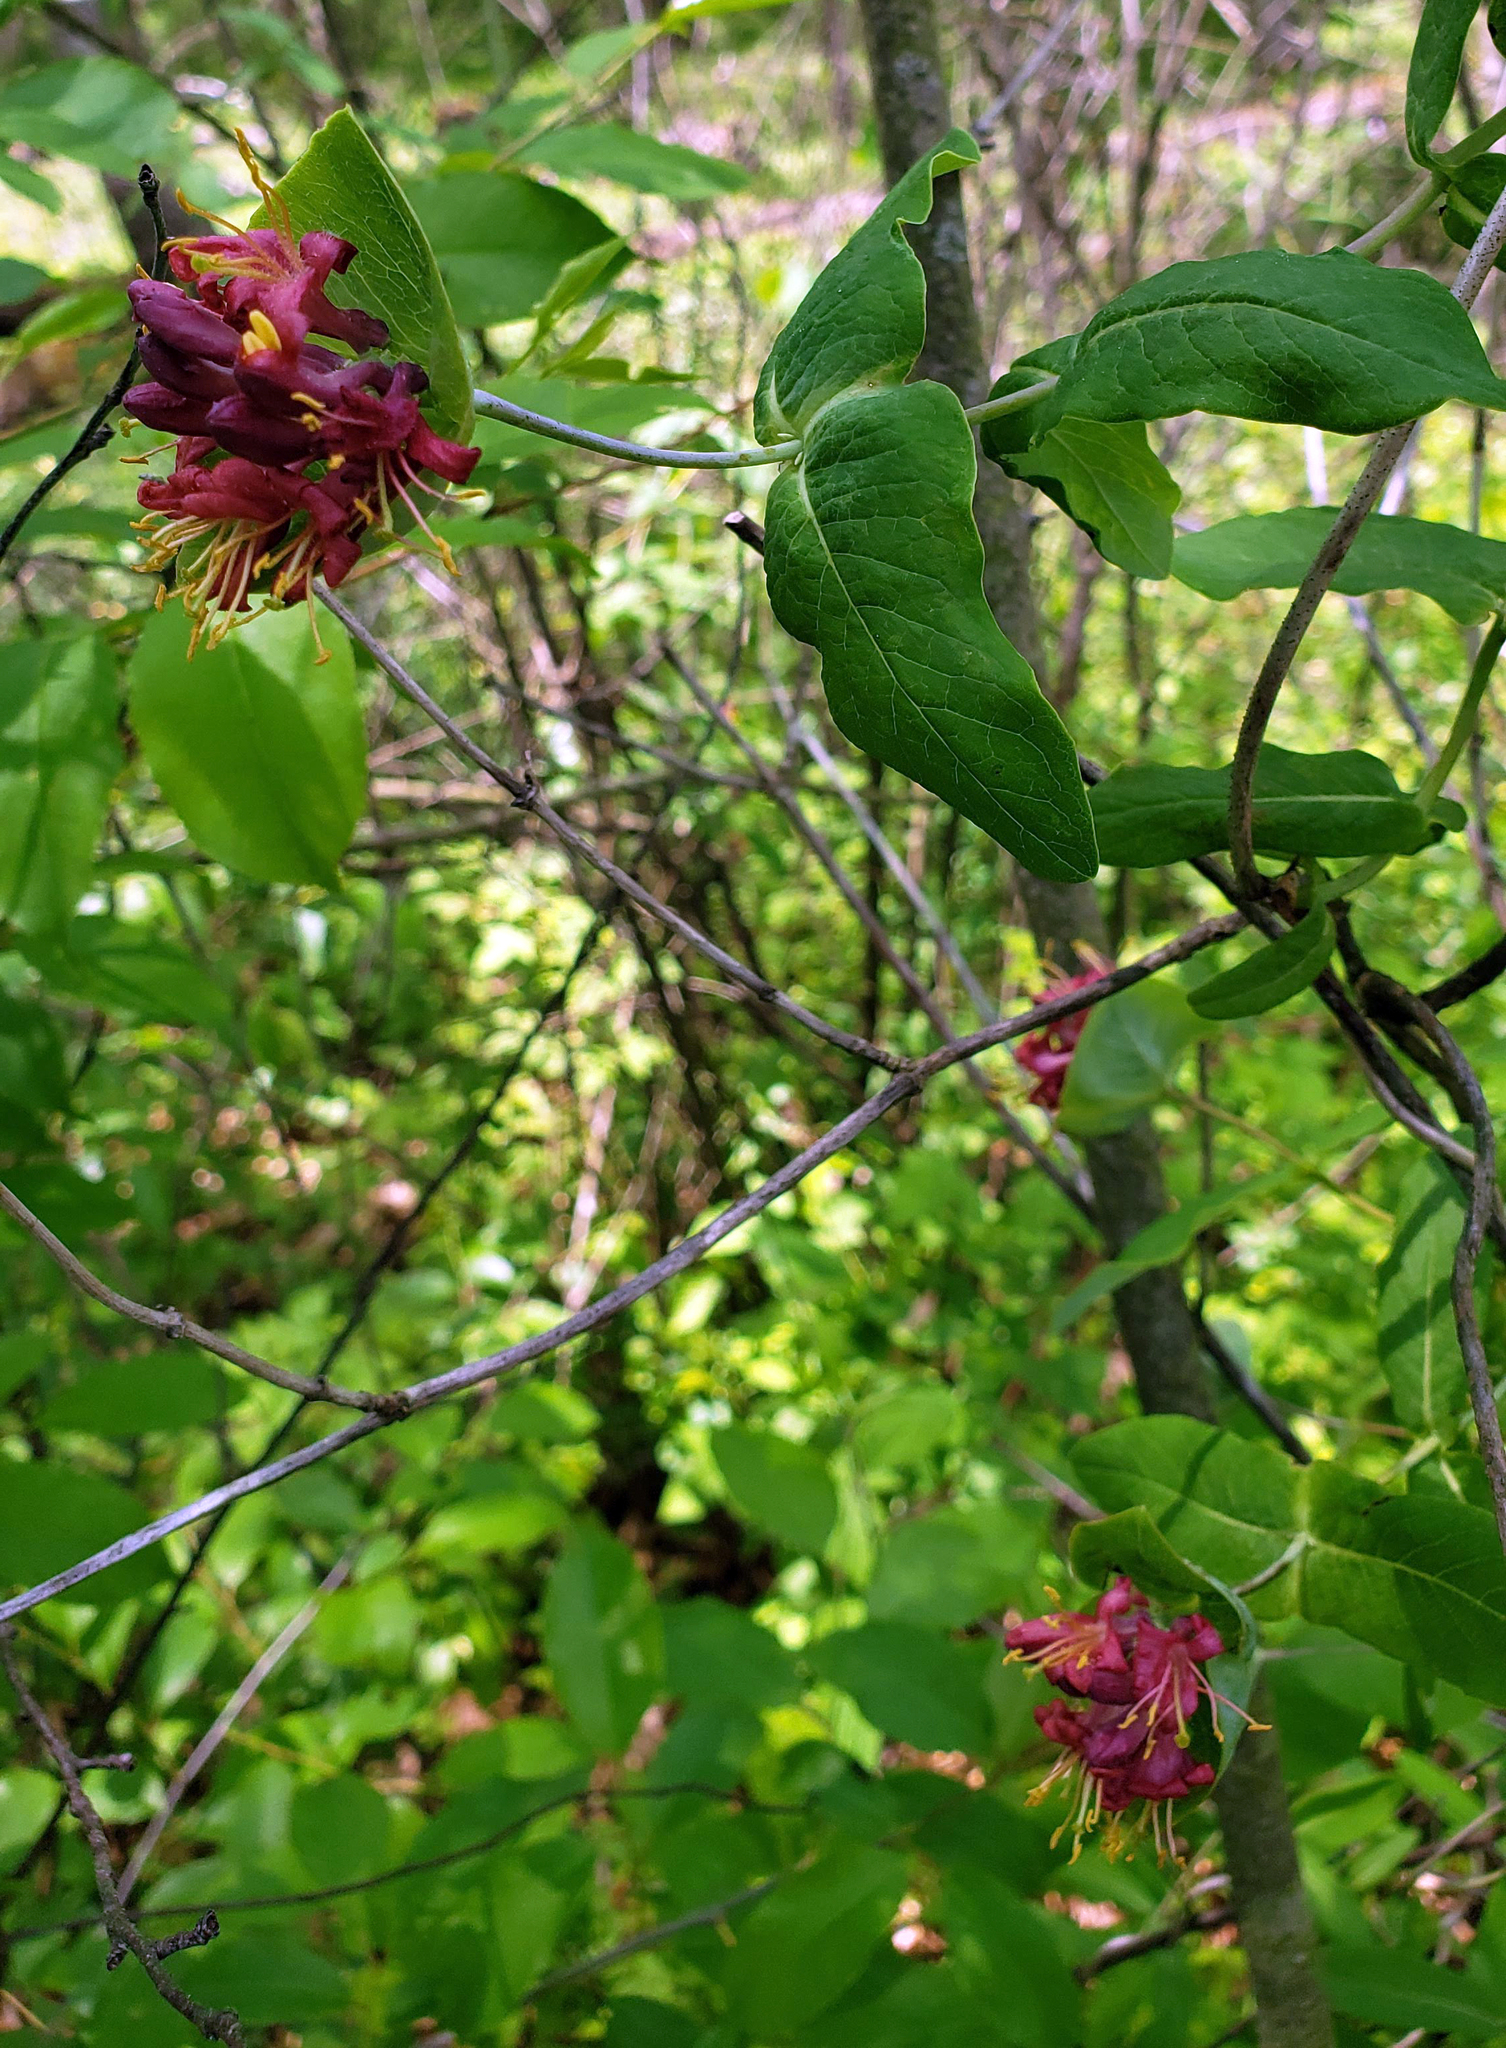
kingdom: Plantae
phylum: Tracheophyta
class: Magnoliopsida
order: Dipsacales
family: Caprifoliaceae
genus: Lonicera
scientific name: Lonicera dioica
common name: Limber honeysuckle
